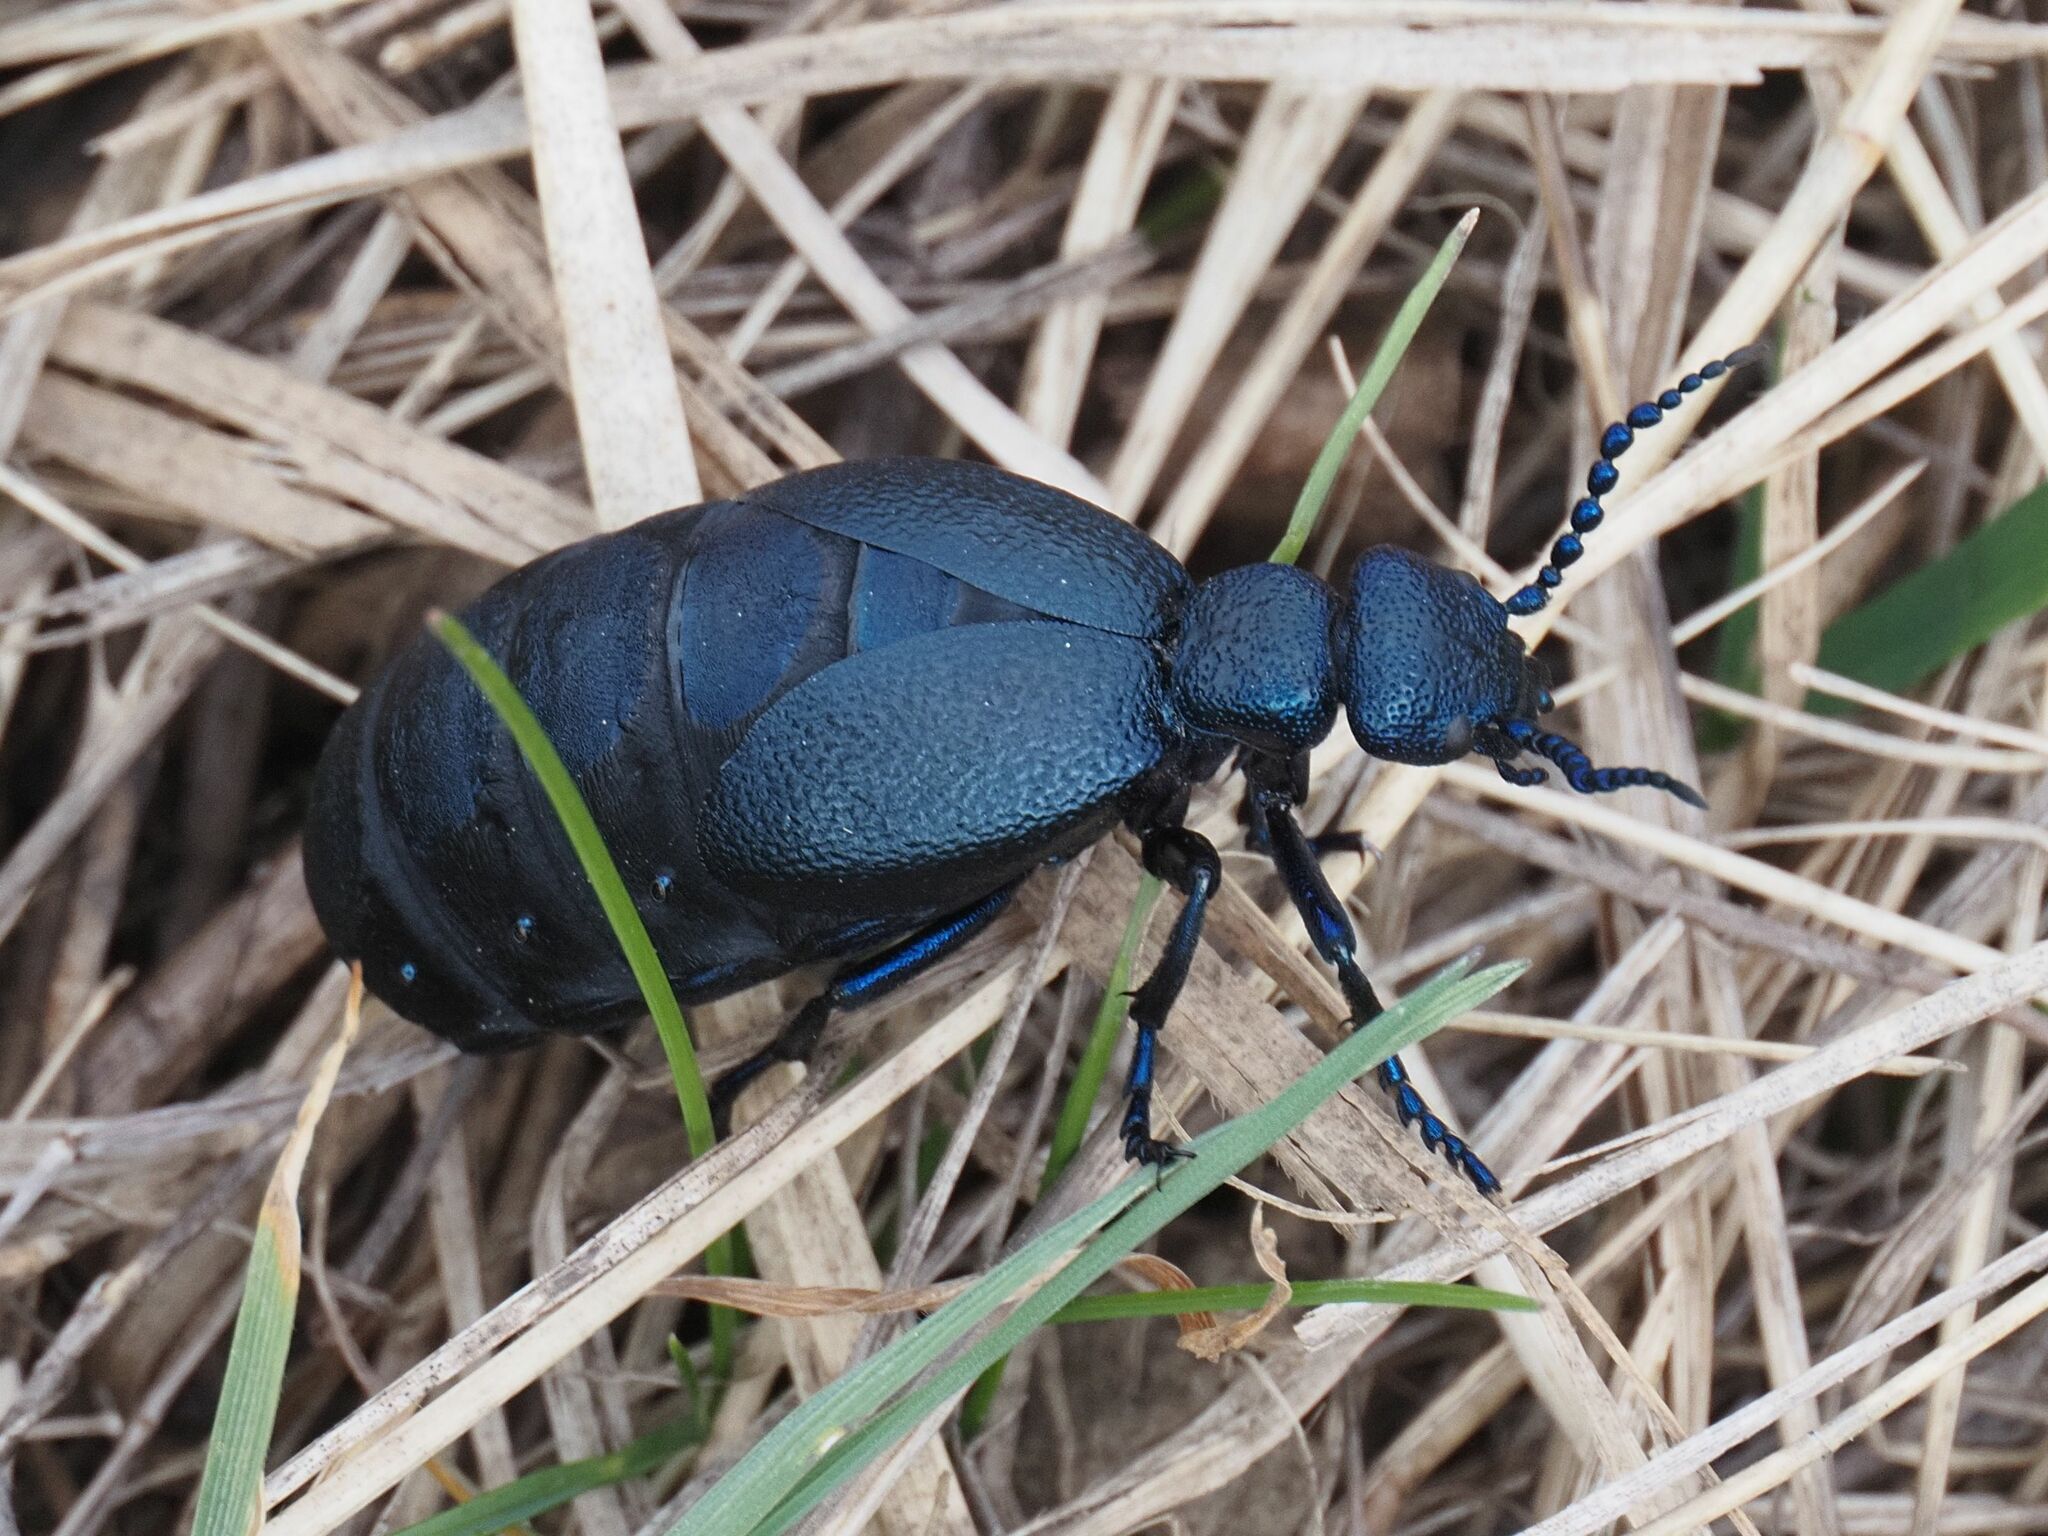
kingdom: Animalia
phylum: Arthropoda
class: Insecta
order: Coleoptera
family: Meloidae
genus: Meloe
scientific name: Meloe proscarabaeus
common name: Black oil-beetle
